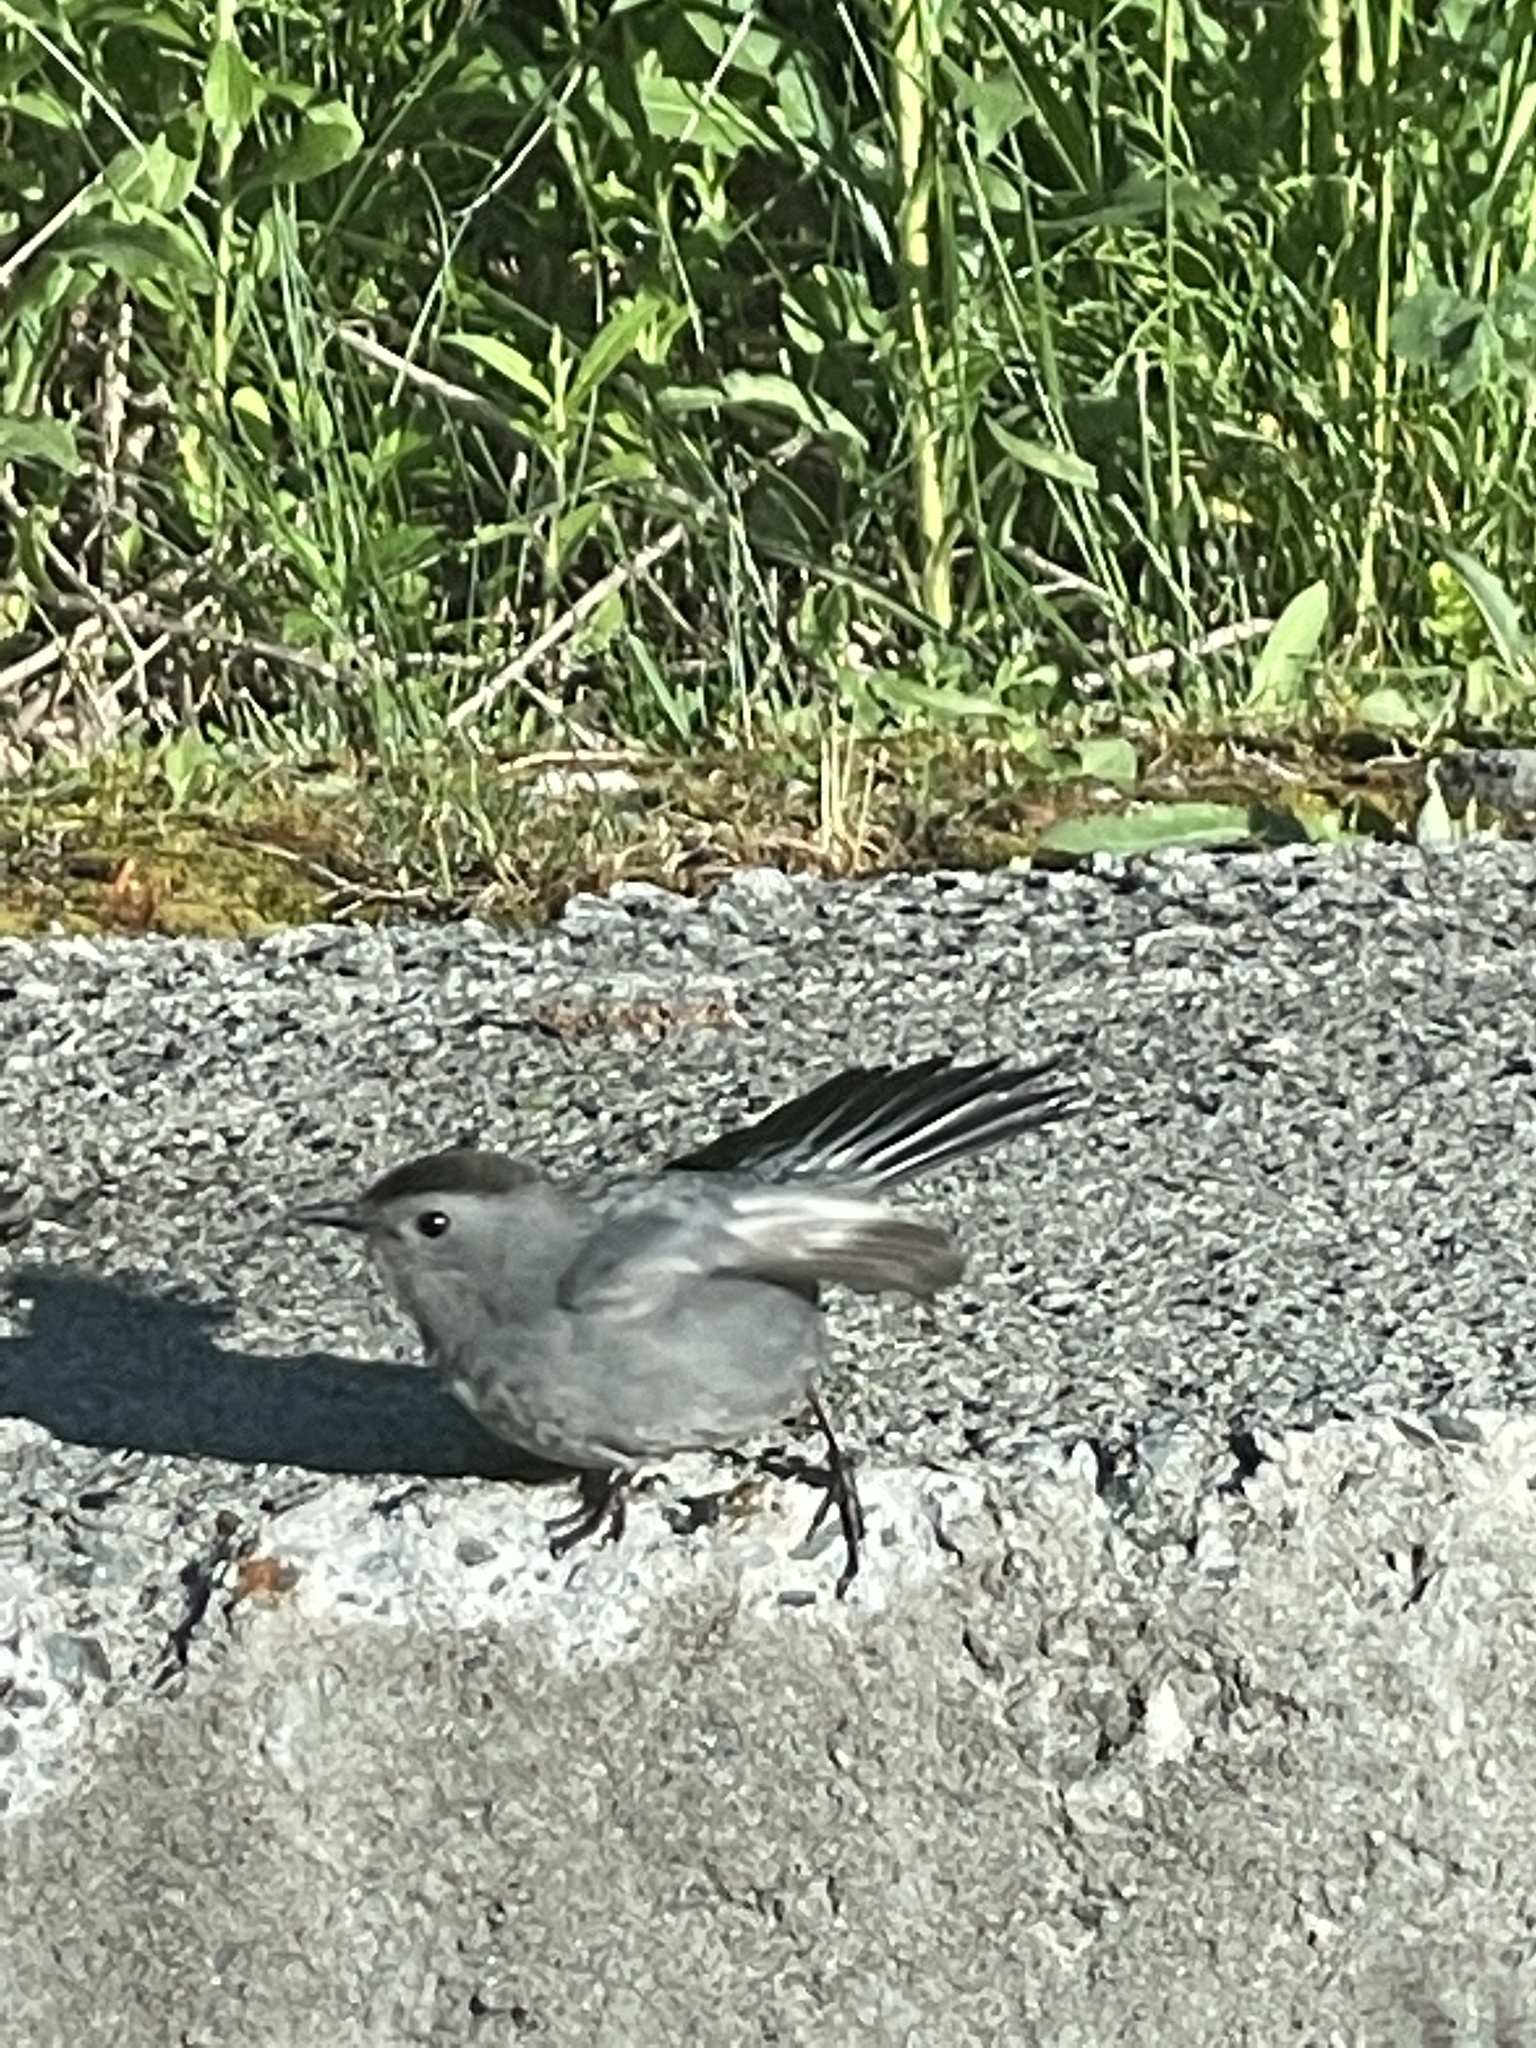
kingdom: Animalia
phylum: Chordata
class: Aves
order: Passeriformes
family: Mimidae
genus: Dumetella
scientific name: Dumetella carolinensis
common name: Gray catbird
